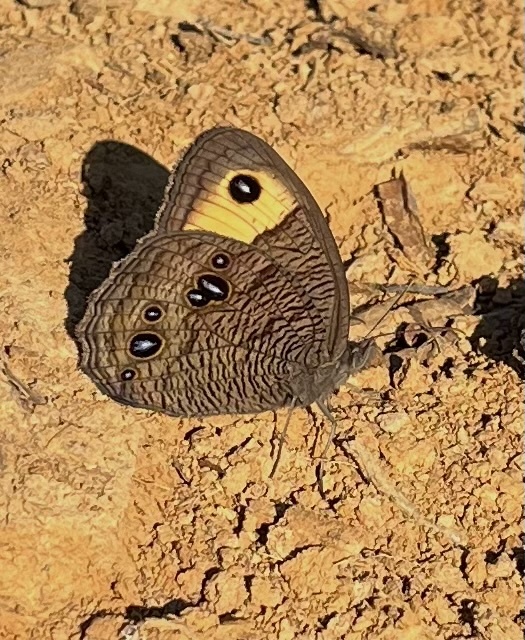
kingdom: Animalia
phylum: Arthropoda
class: Insecta
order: Lepidoptera
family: Nymphalidae
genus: Cercyonis
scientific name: Cercyonis pegala
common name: Common wood-nymph
